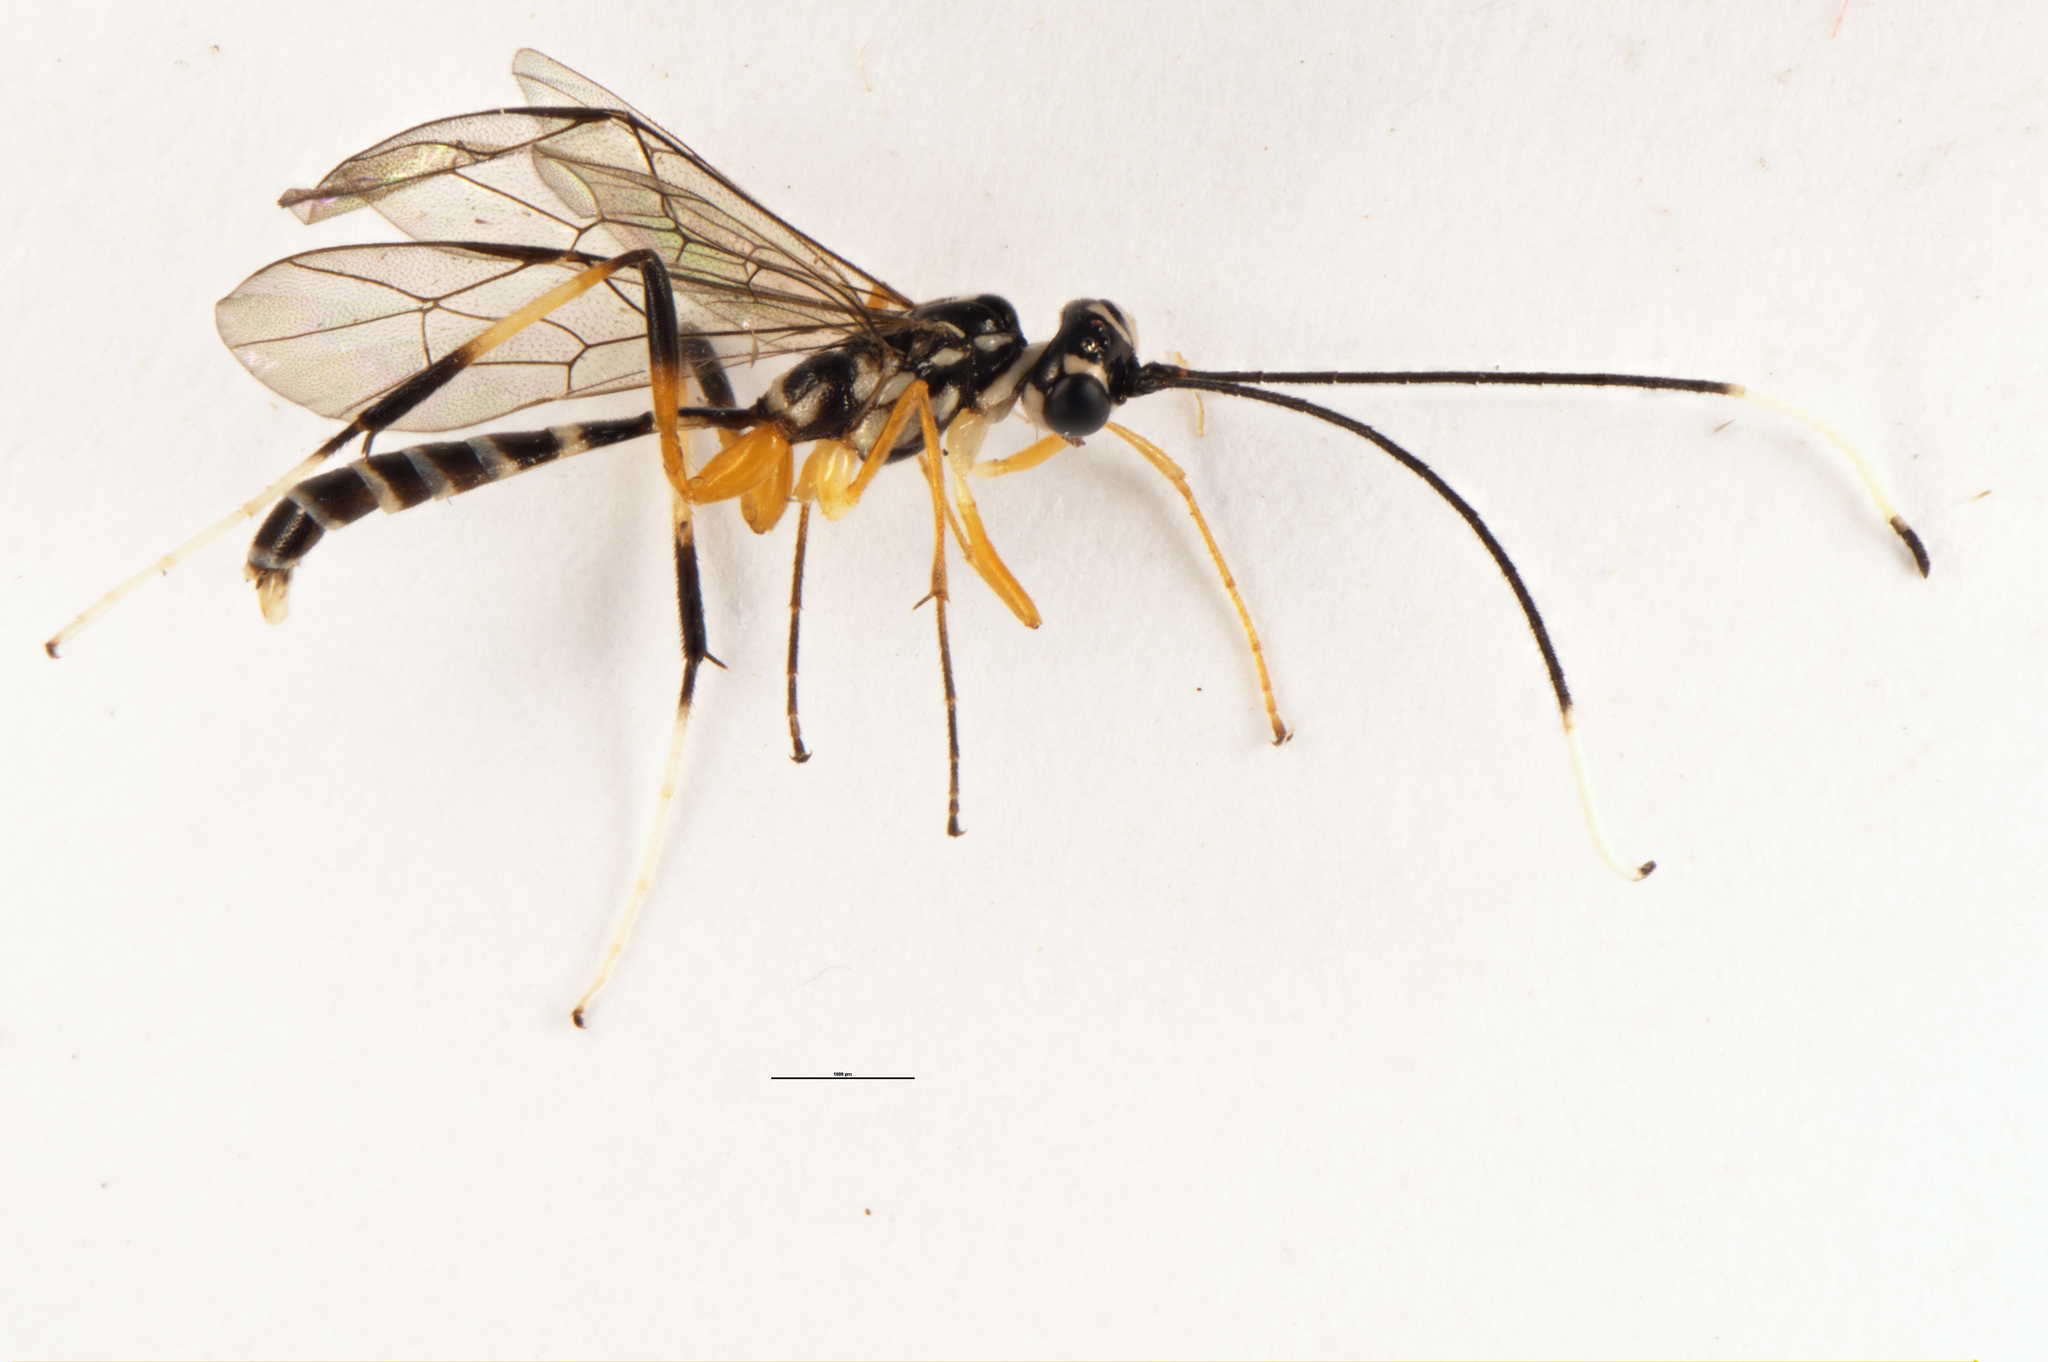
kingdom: Animalia
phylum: Arthropoda
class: Insecta
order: Hymenoptera
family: Ichneumonidae
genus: Xanthocryptus
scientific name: Xanthocryptus novozealandicus
